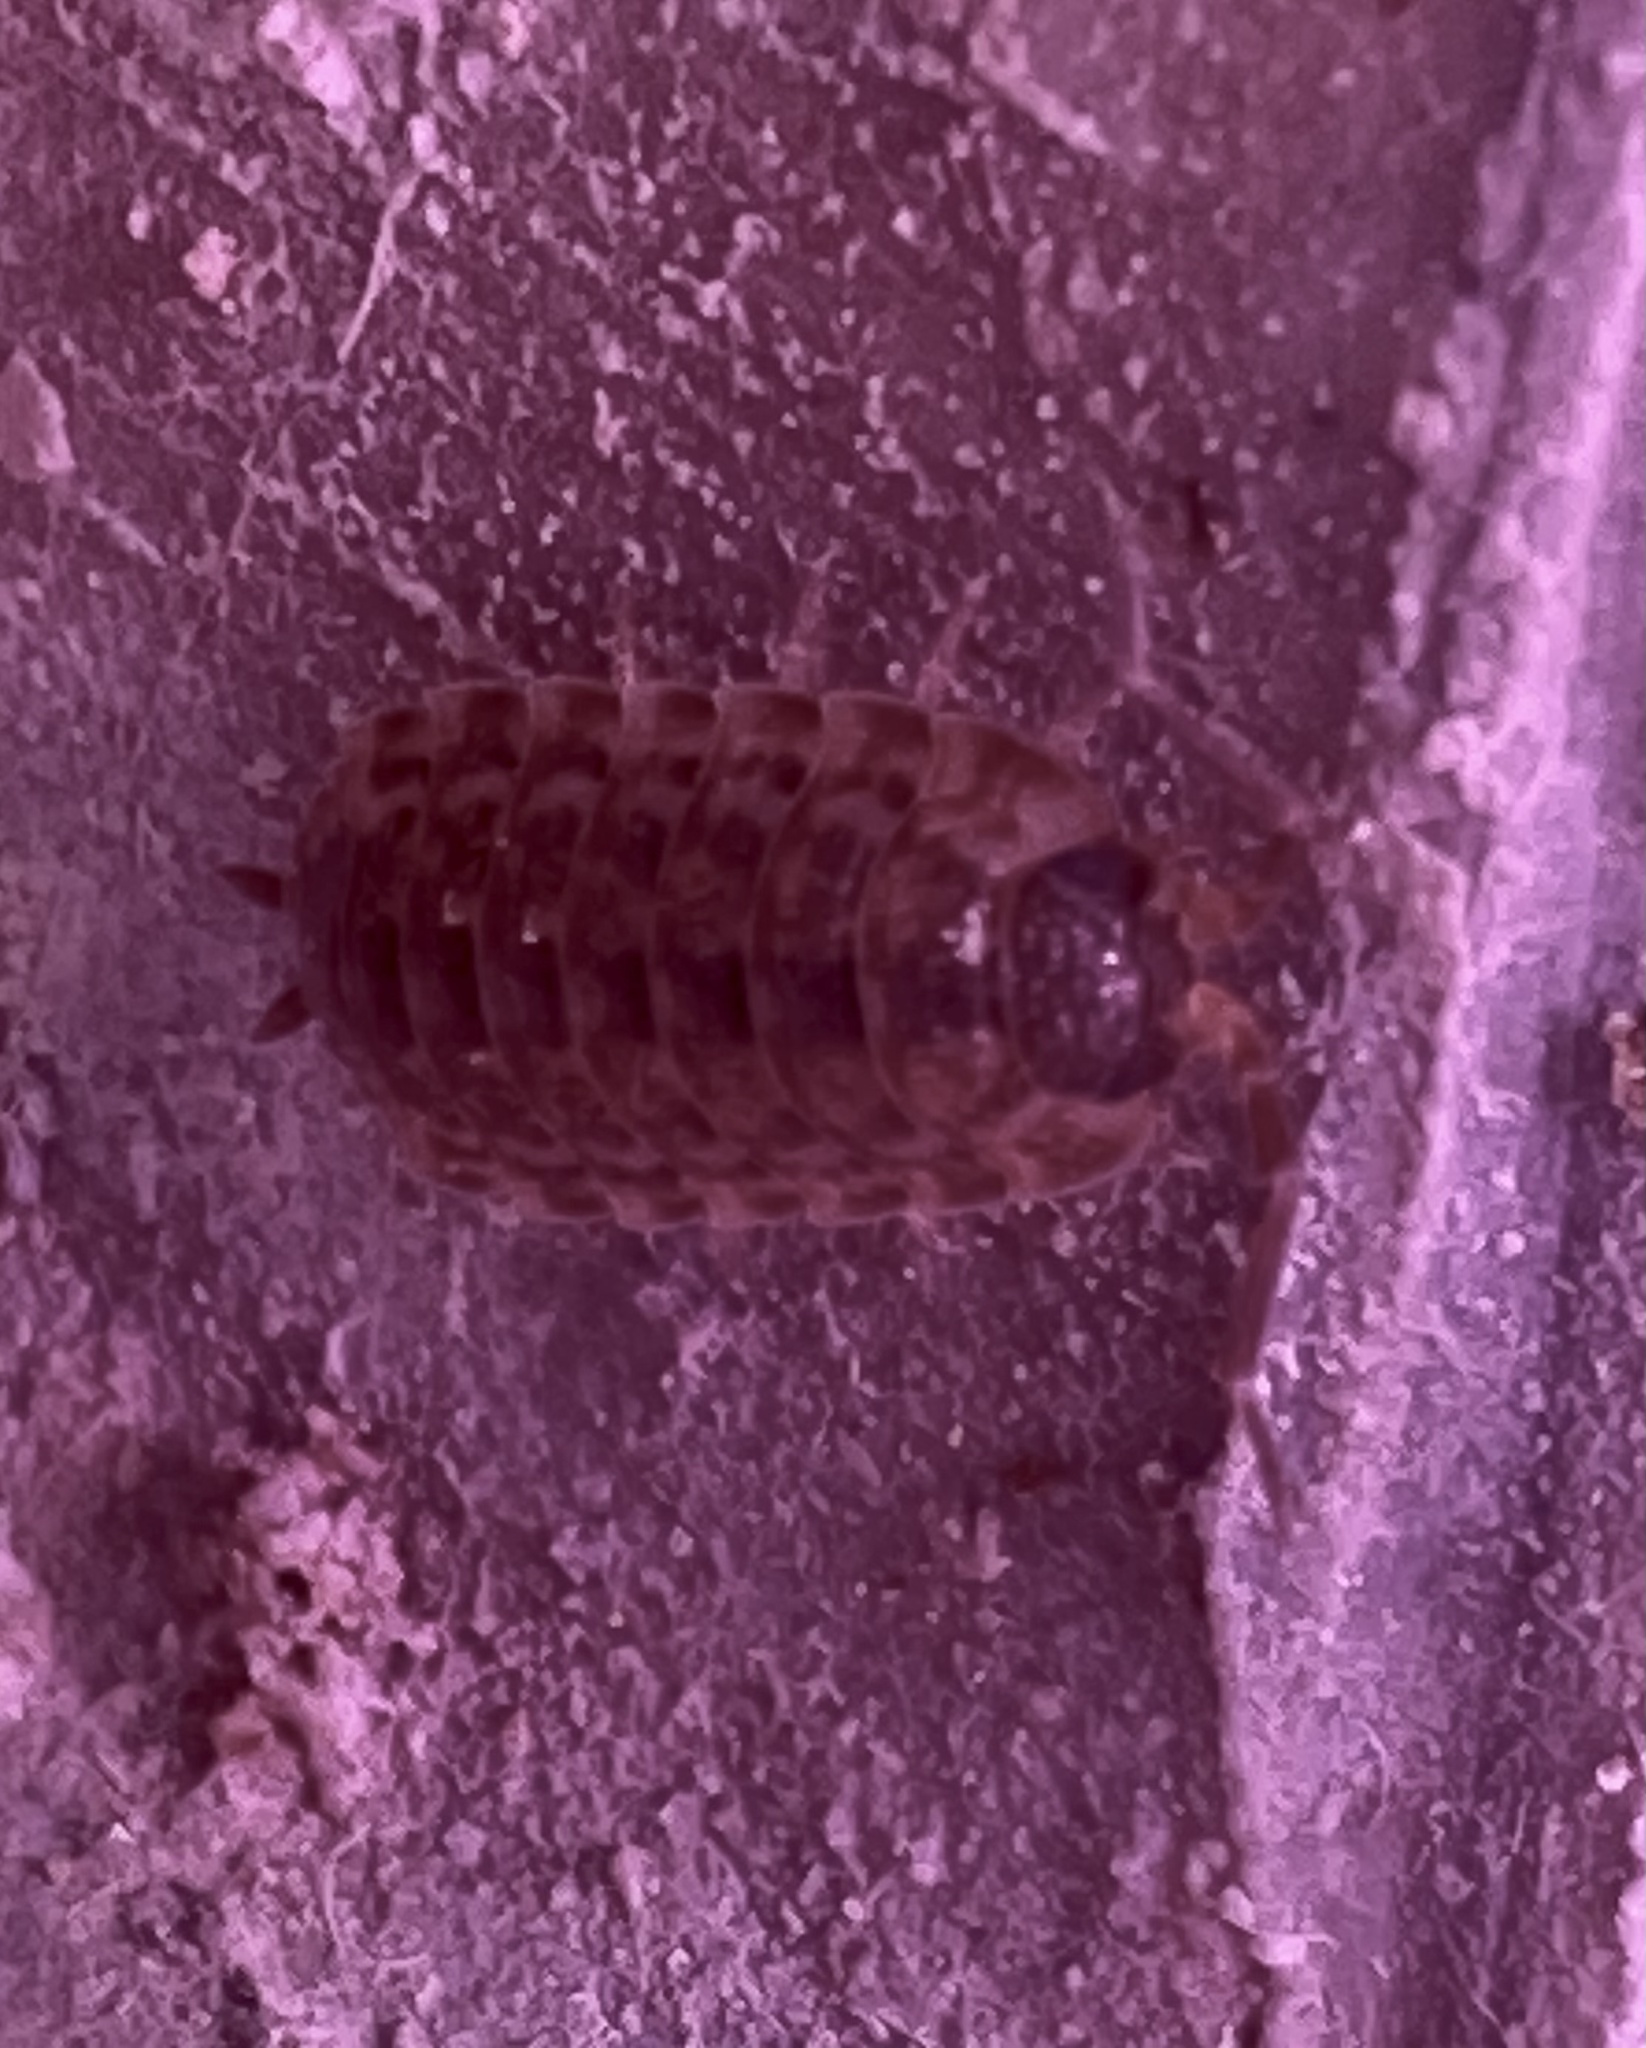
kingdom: Animalia
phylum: Arthropoda
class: Malacostraca
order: Isopoda
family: Porcellionidae
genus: Porcellio
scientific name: Porcellio spinicornis
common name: Painted woodlouse
